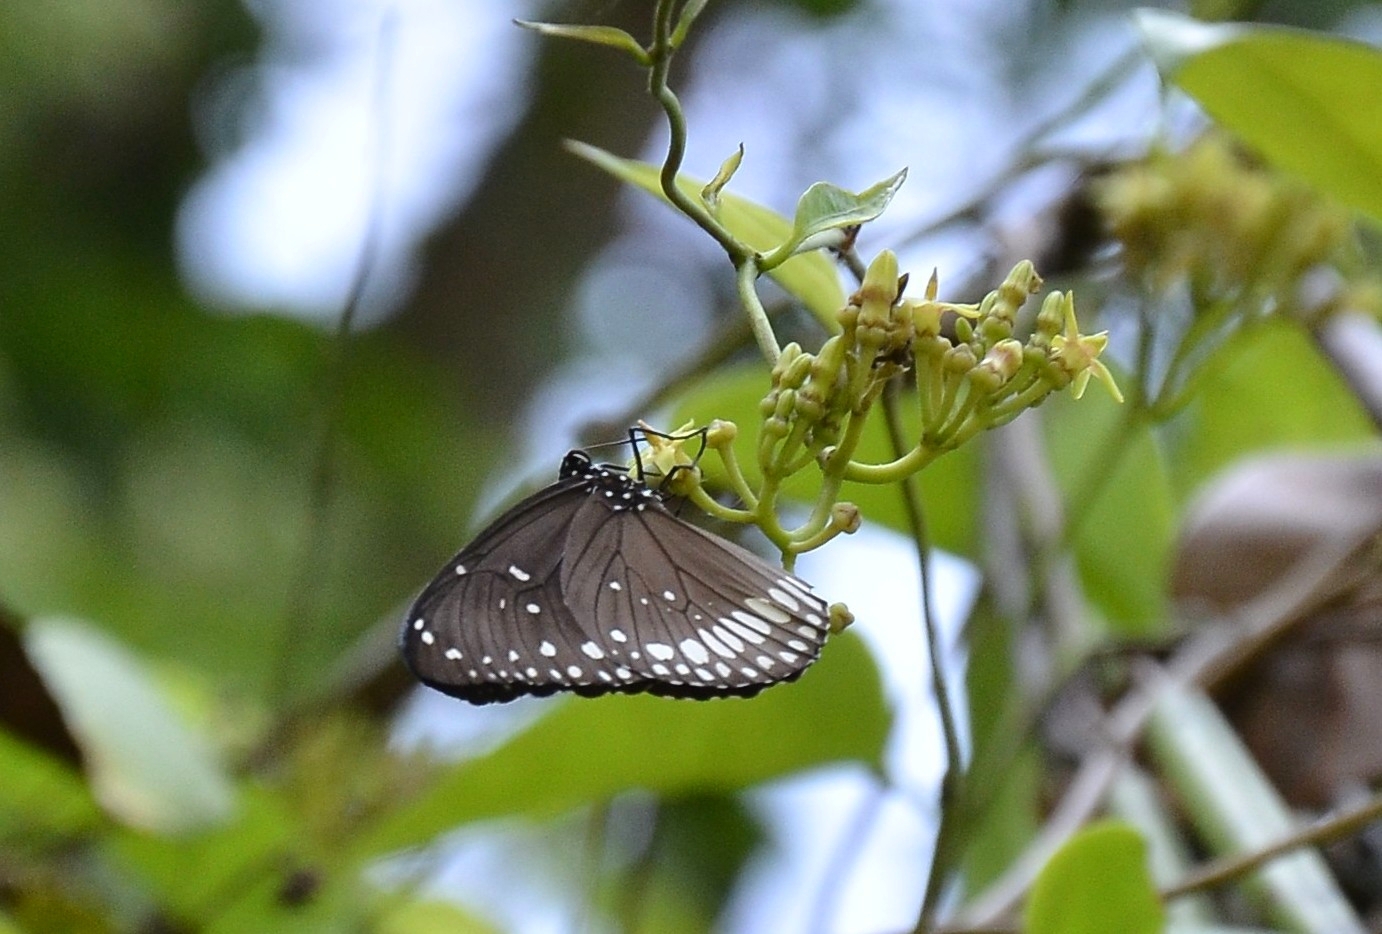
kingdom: Animalia
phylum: Arthropoda
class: Insecta
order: Lepidoptera
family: Nymphalidae
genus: Euploea
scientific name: Euploea core
